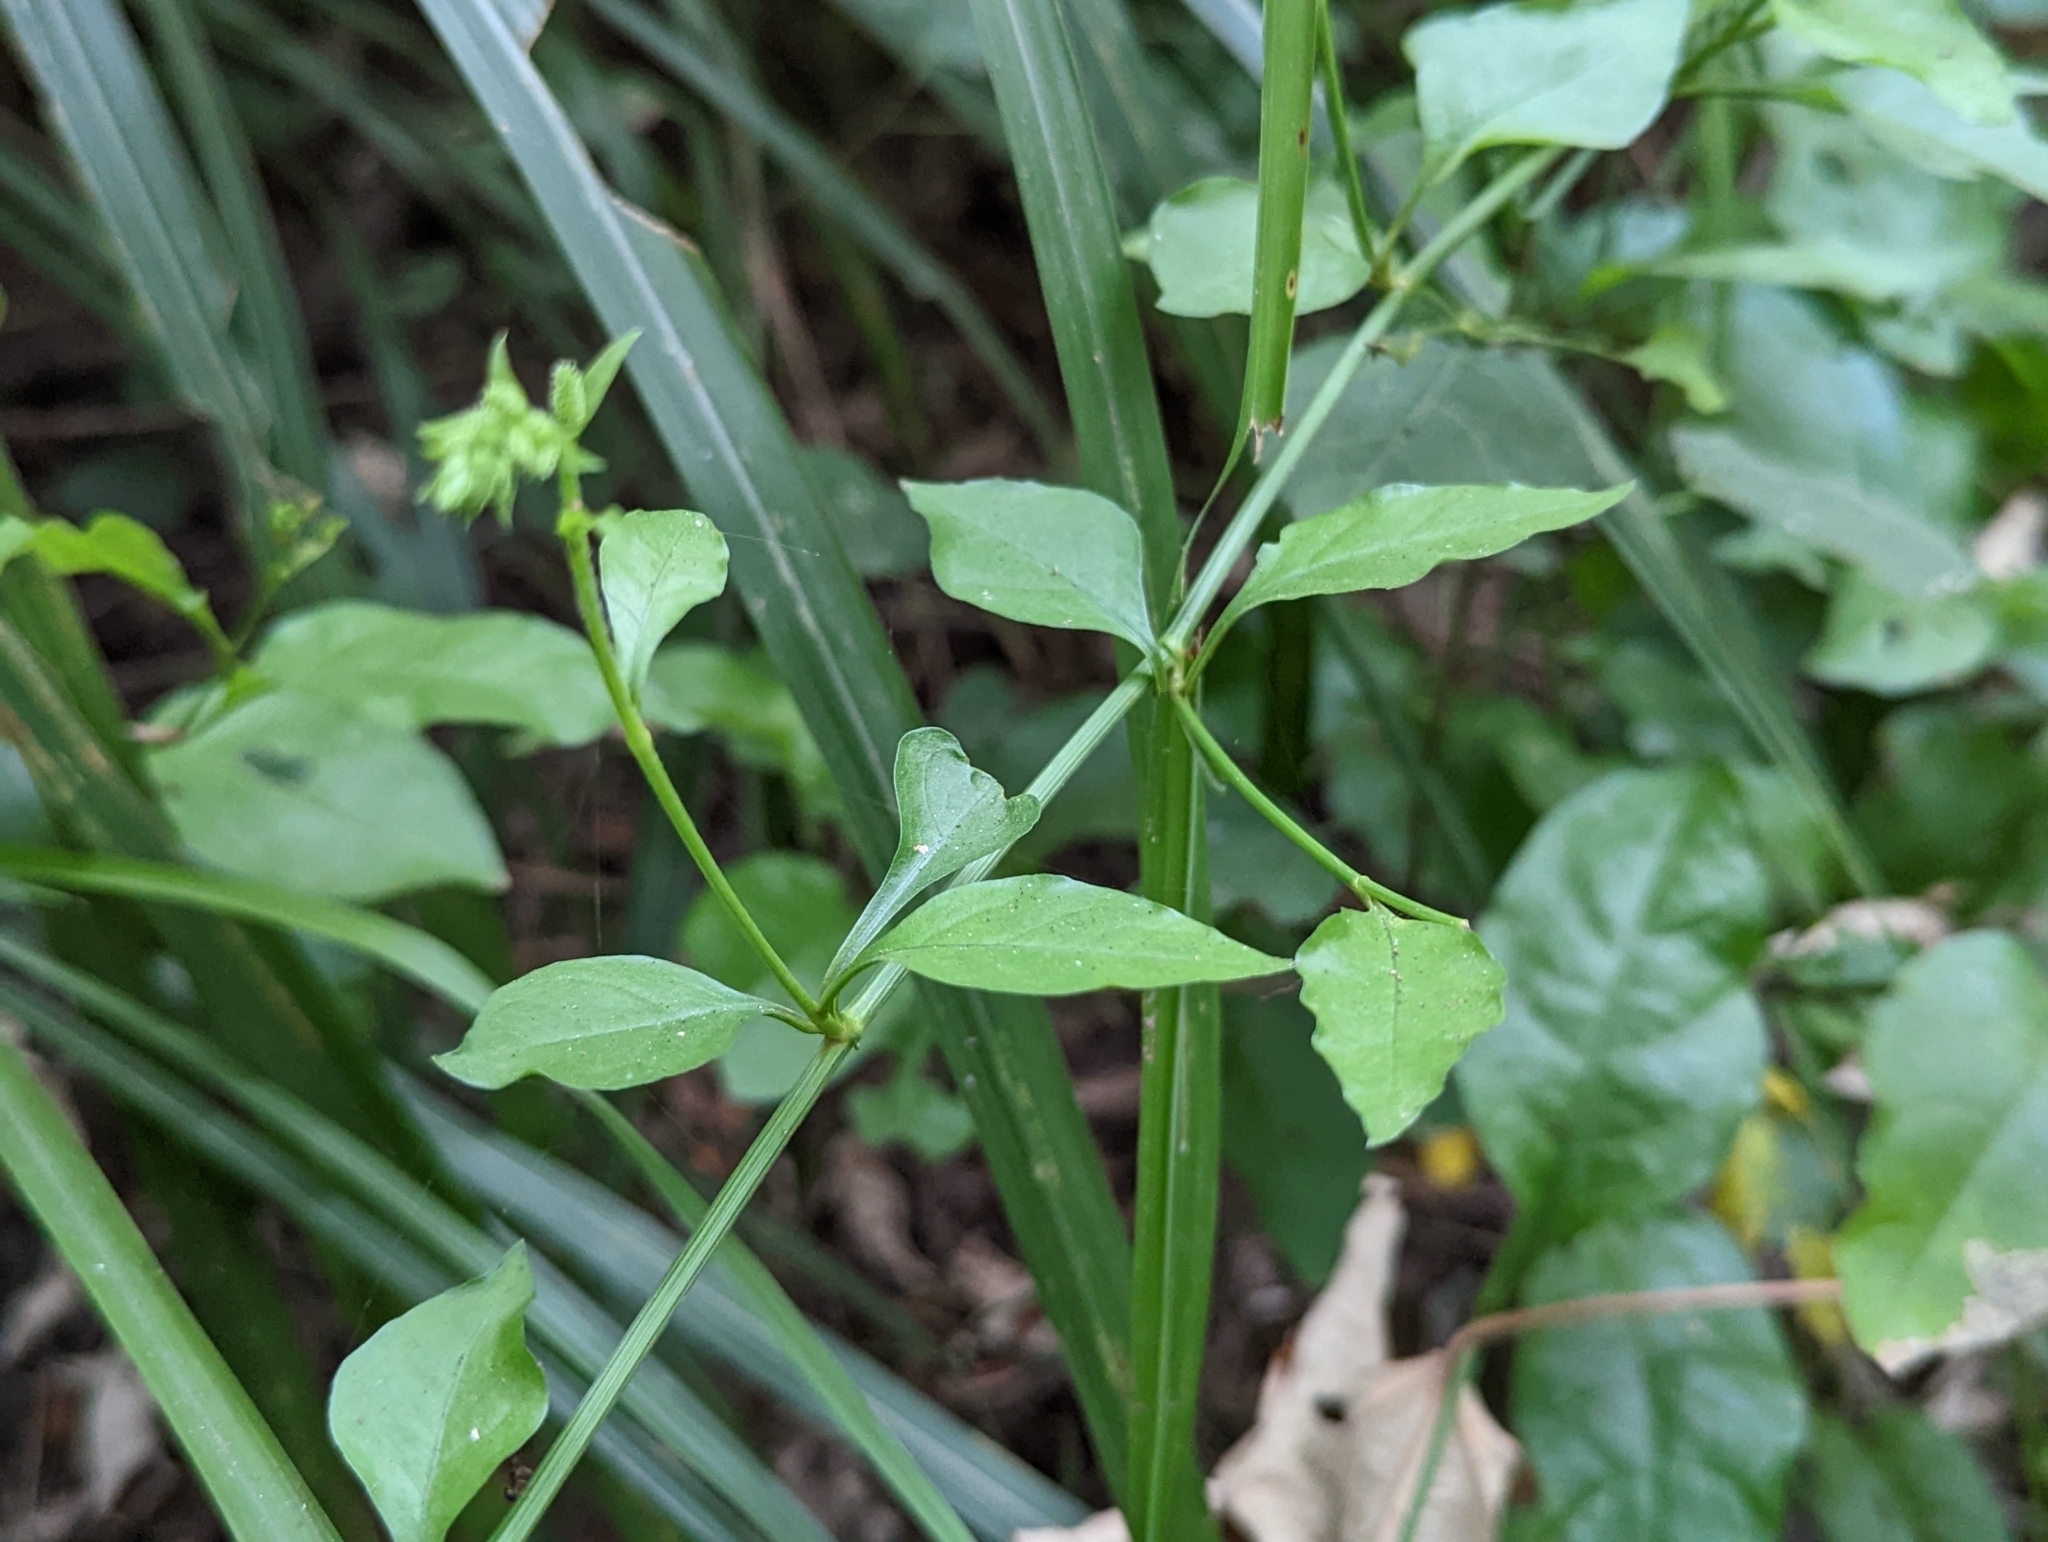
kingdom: Plantae
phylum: Tracheophyta
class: Magnoliopsida
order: Caryophyllales
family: Plumbaginaceae
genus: Plumbago
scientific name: Plumbago zeylanica
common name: Doctorbush
